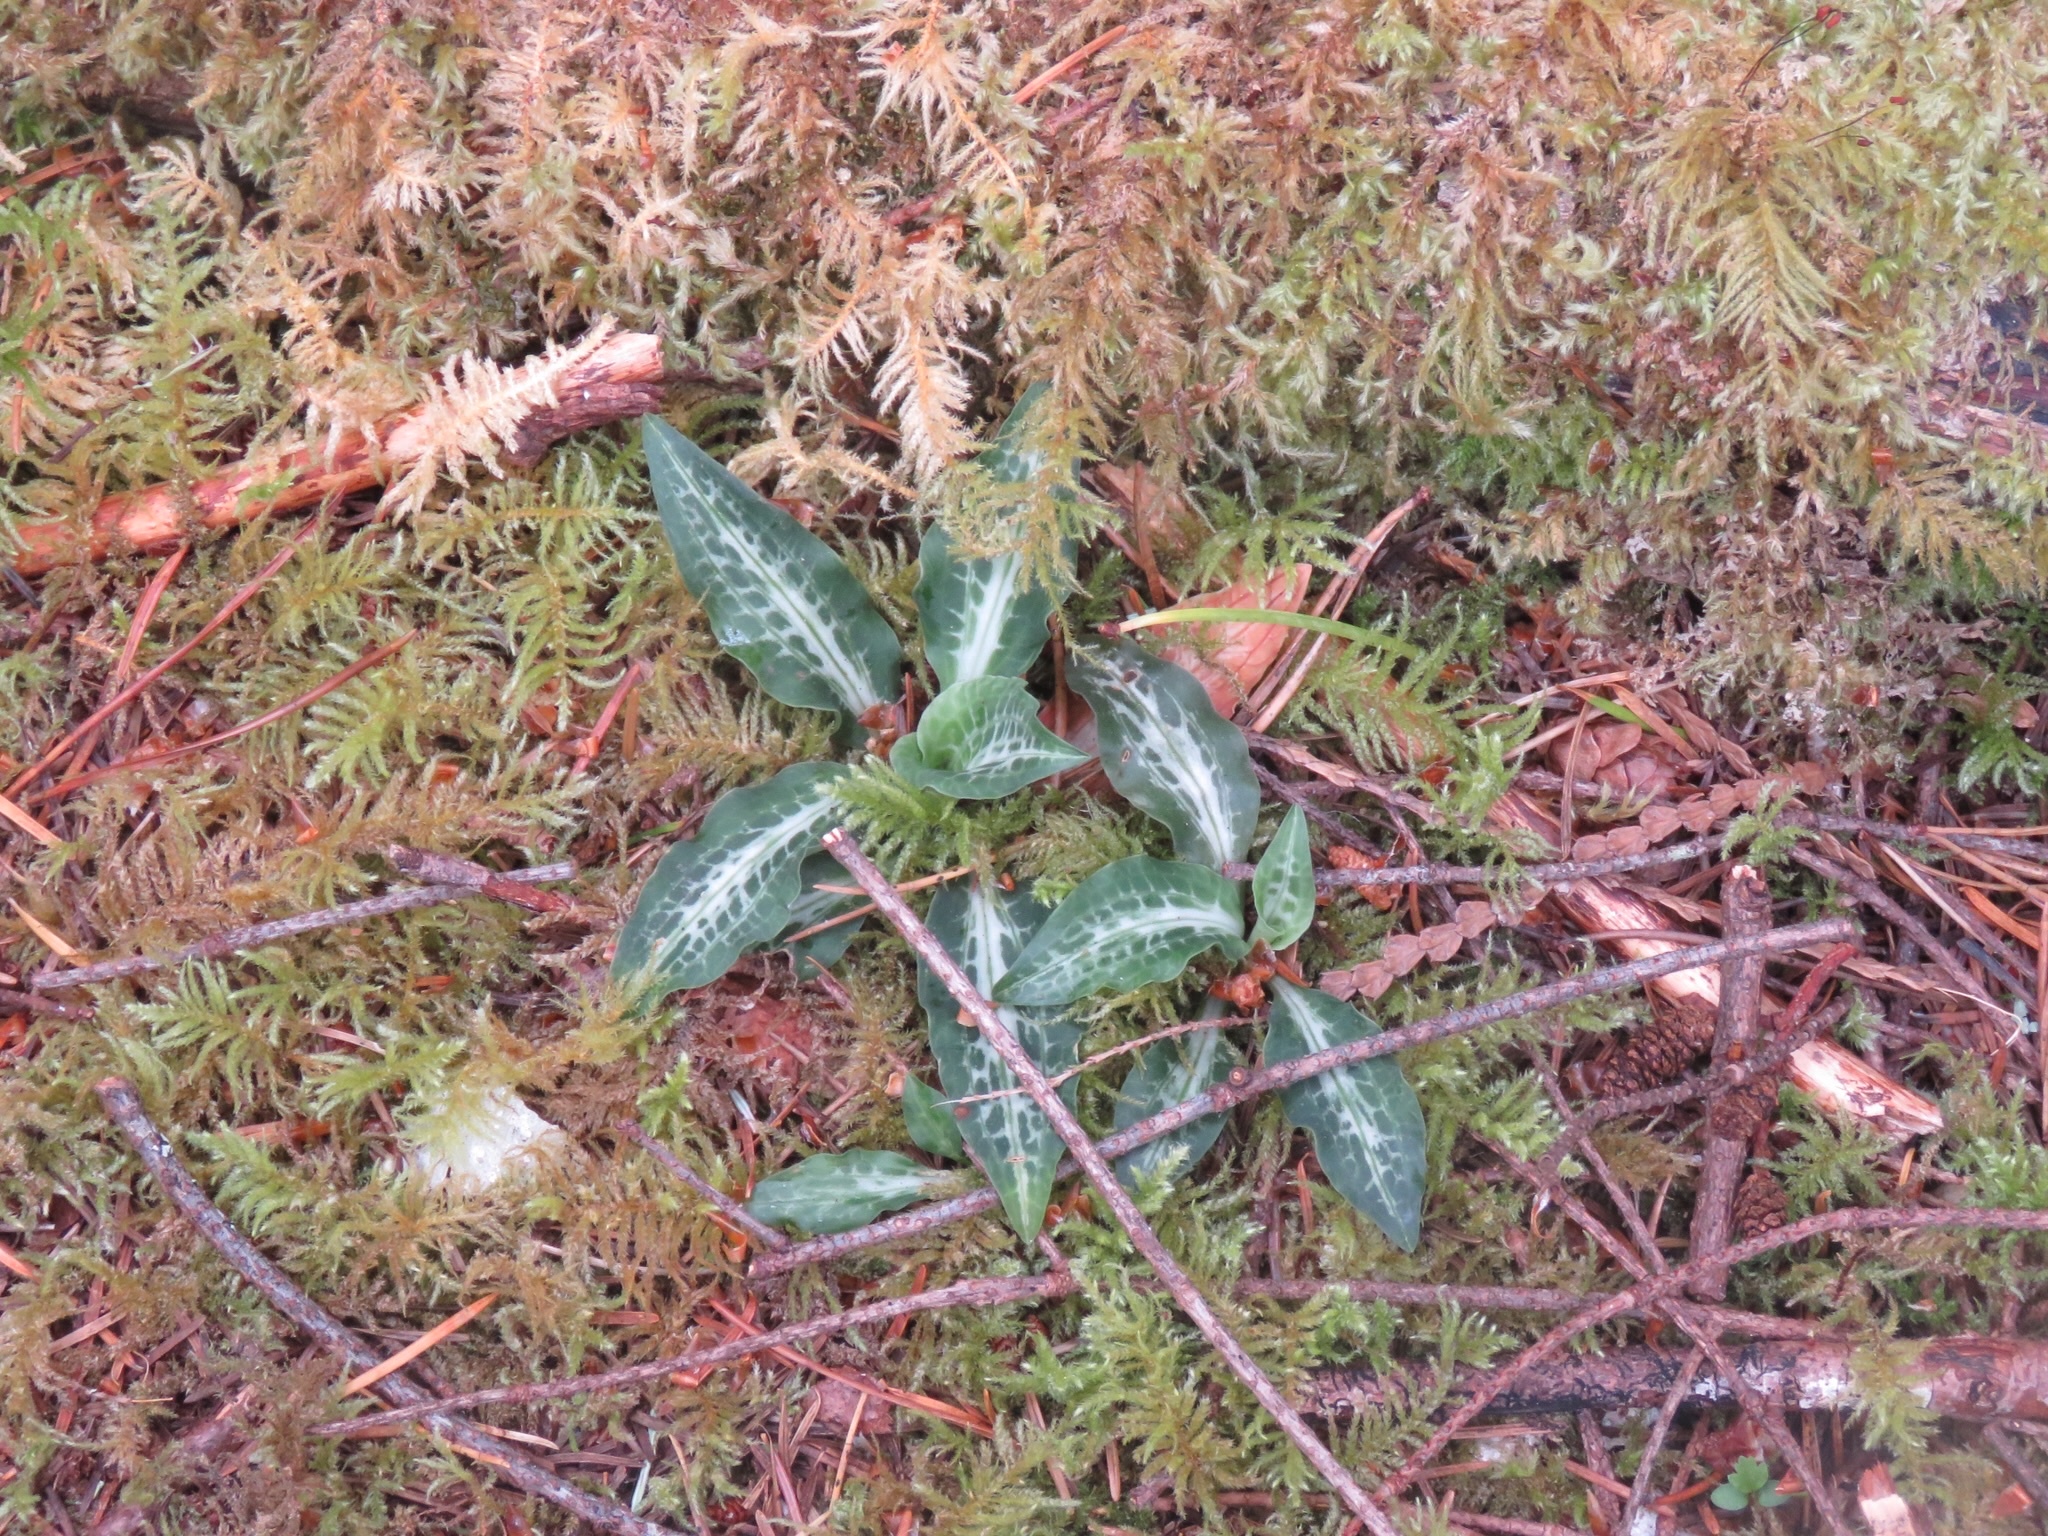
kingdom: Plantae
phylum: Tracheophyta
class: Liliopsida
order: Asparagales
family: Orchidaceae
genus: Goodyera
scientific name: Goodyera oblongifolia
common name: Giant rattlesnake-plantain
